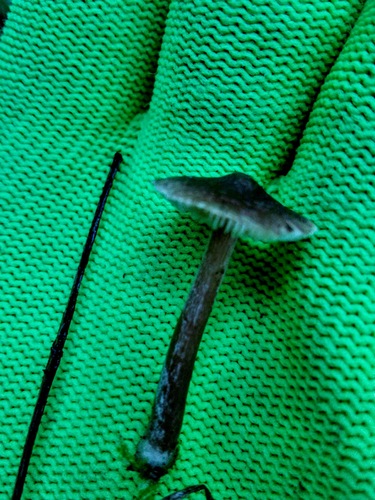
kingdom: Fungi
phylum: Basidiomycota
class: Agaricomycetes
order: Agaricales
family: Inocybaceae
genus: Inocybe
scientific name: Inocybe
